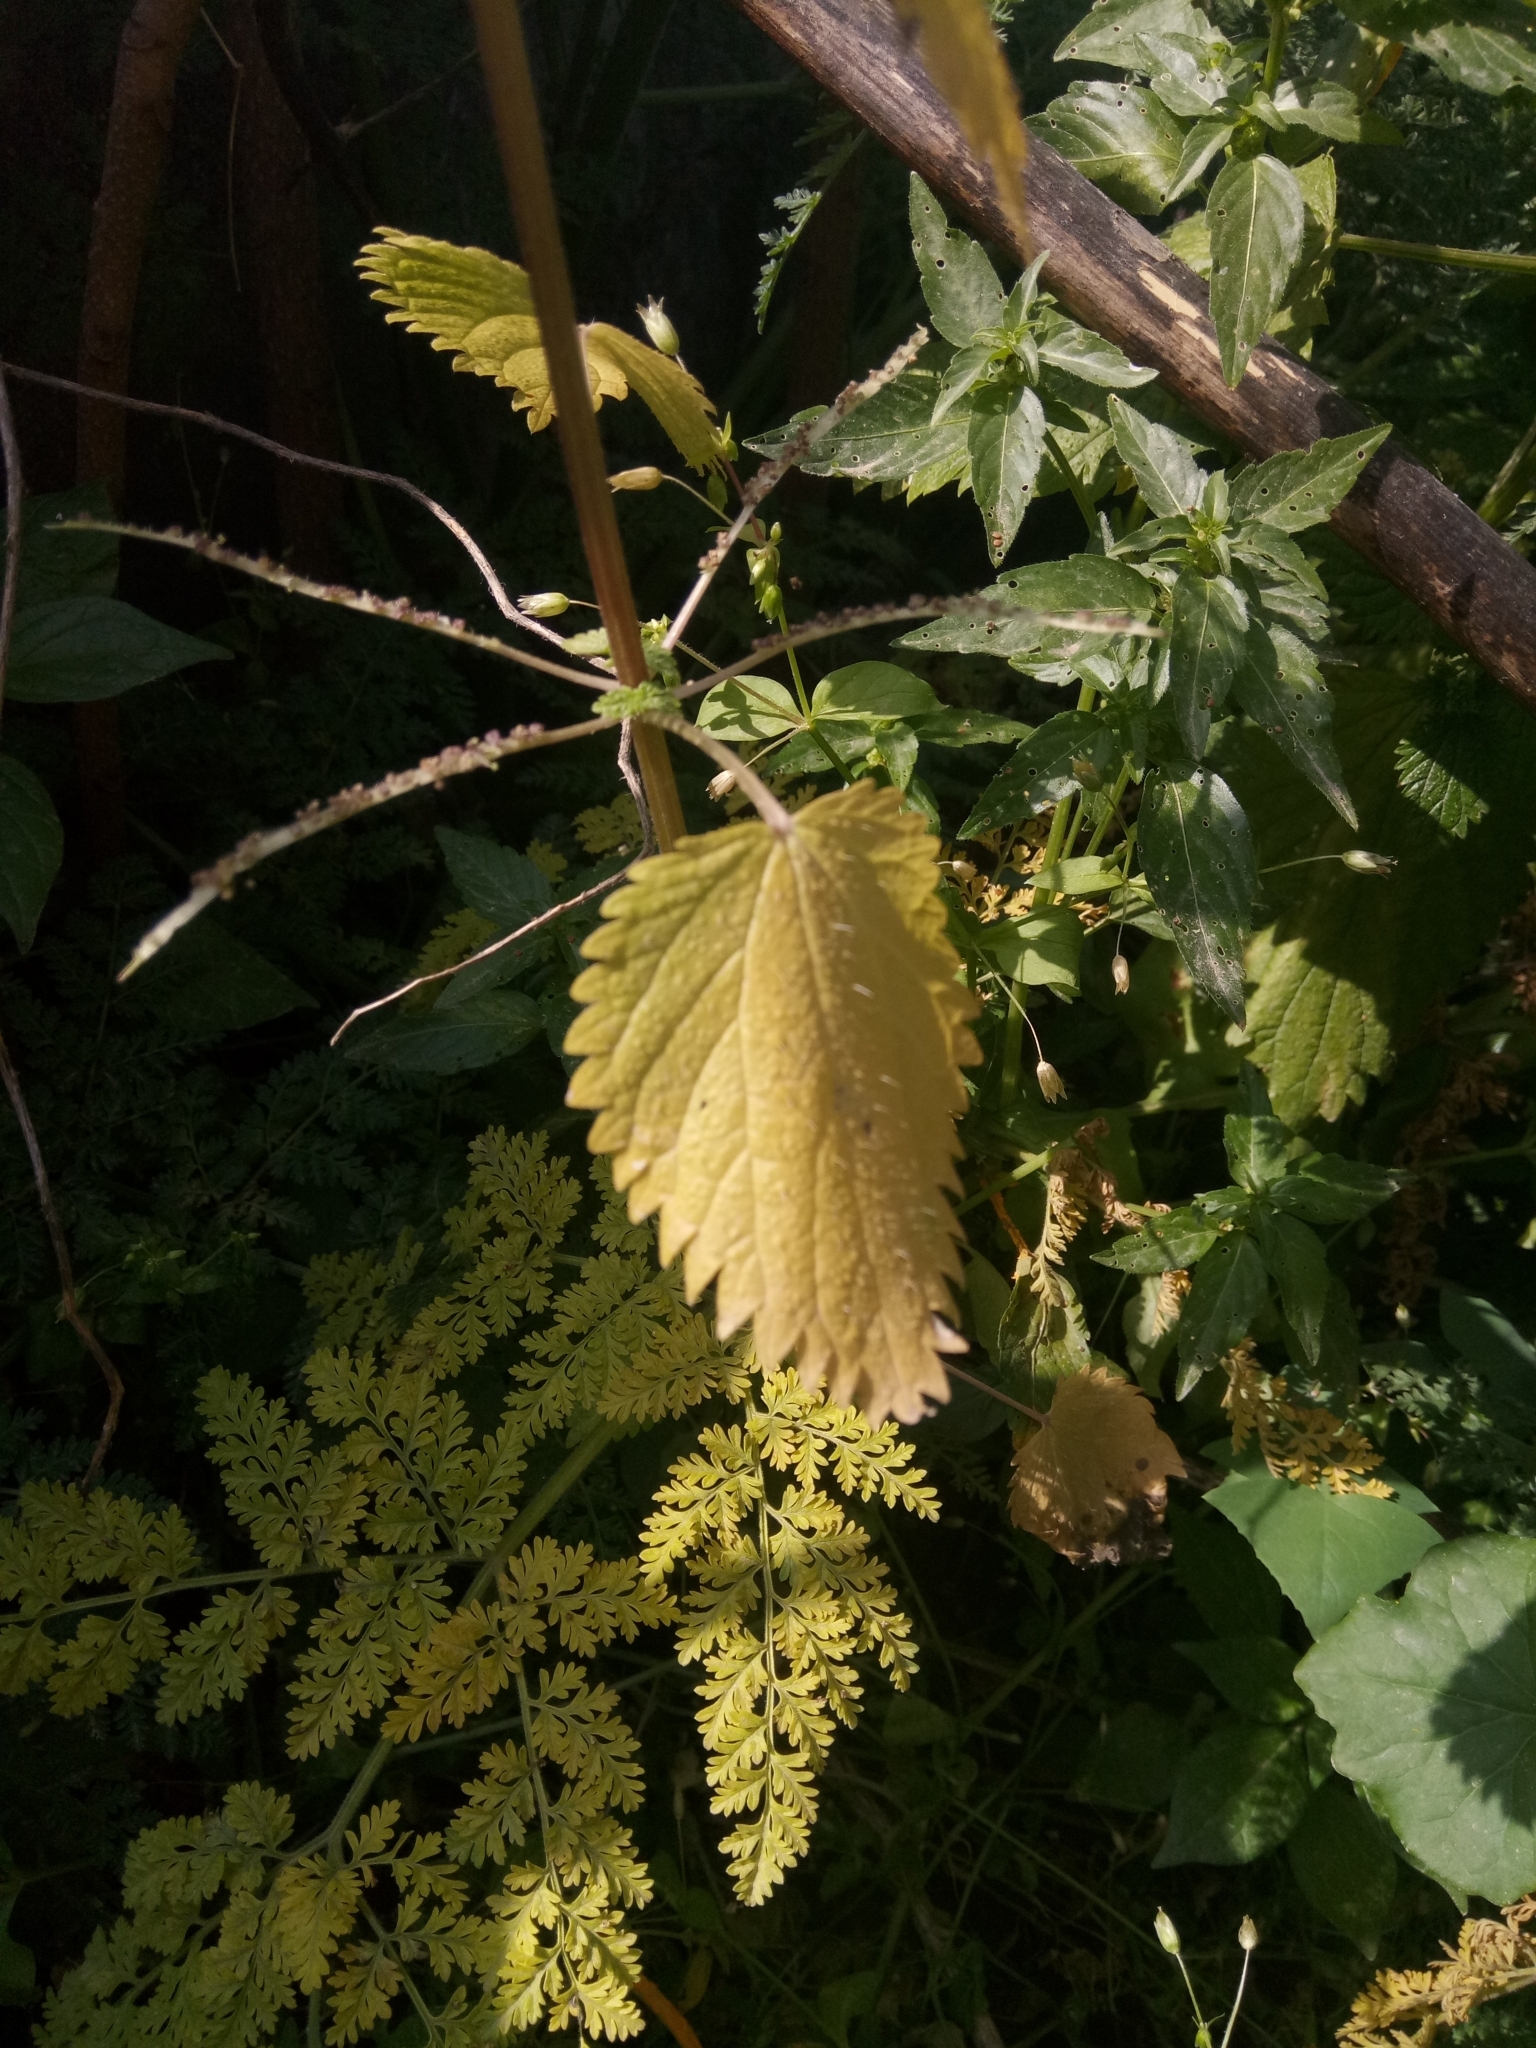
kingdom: Plantae
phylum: Tracheophyta
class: Magnoliopsida
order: Rosales
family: Urticaceae
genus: Urtica
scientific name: Urtica membranacea
